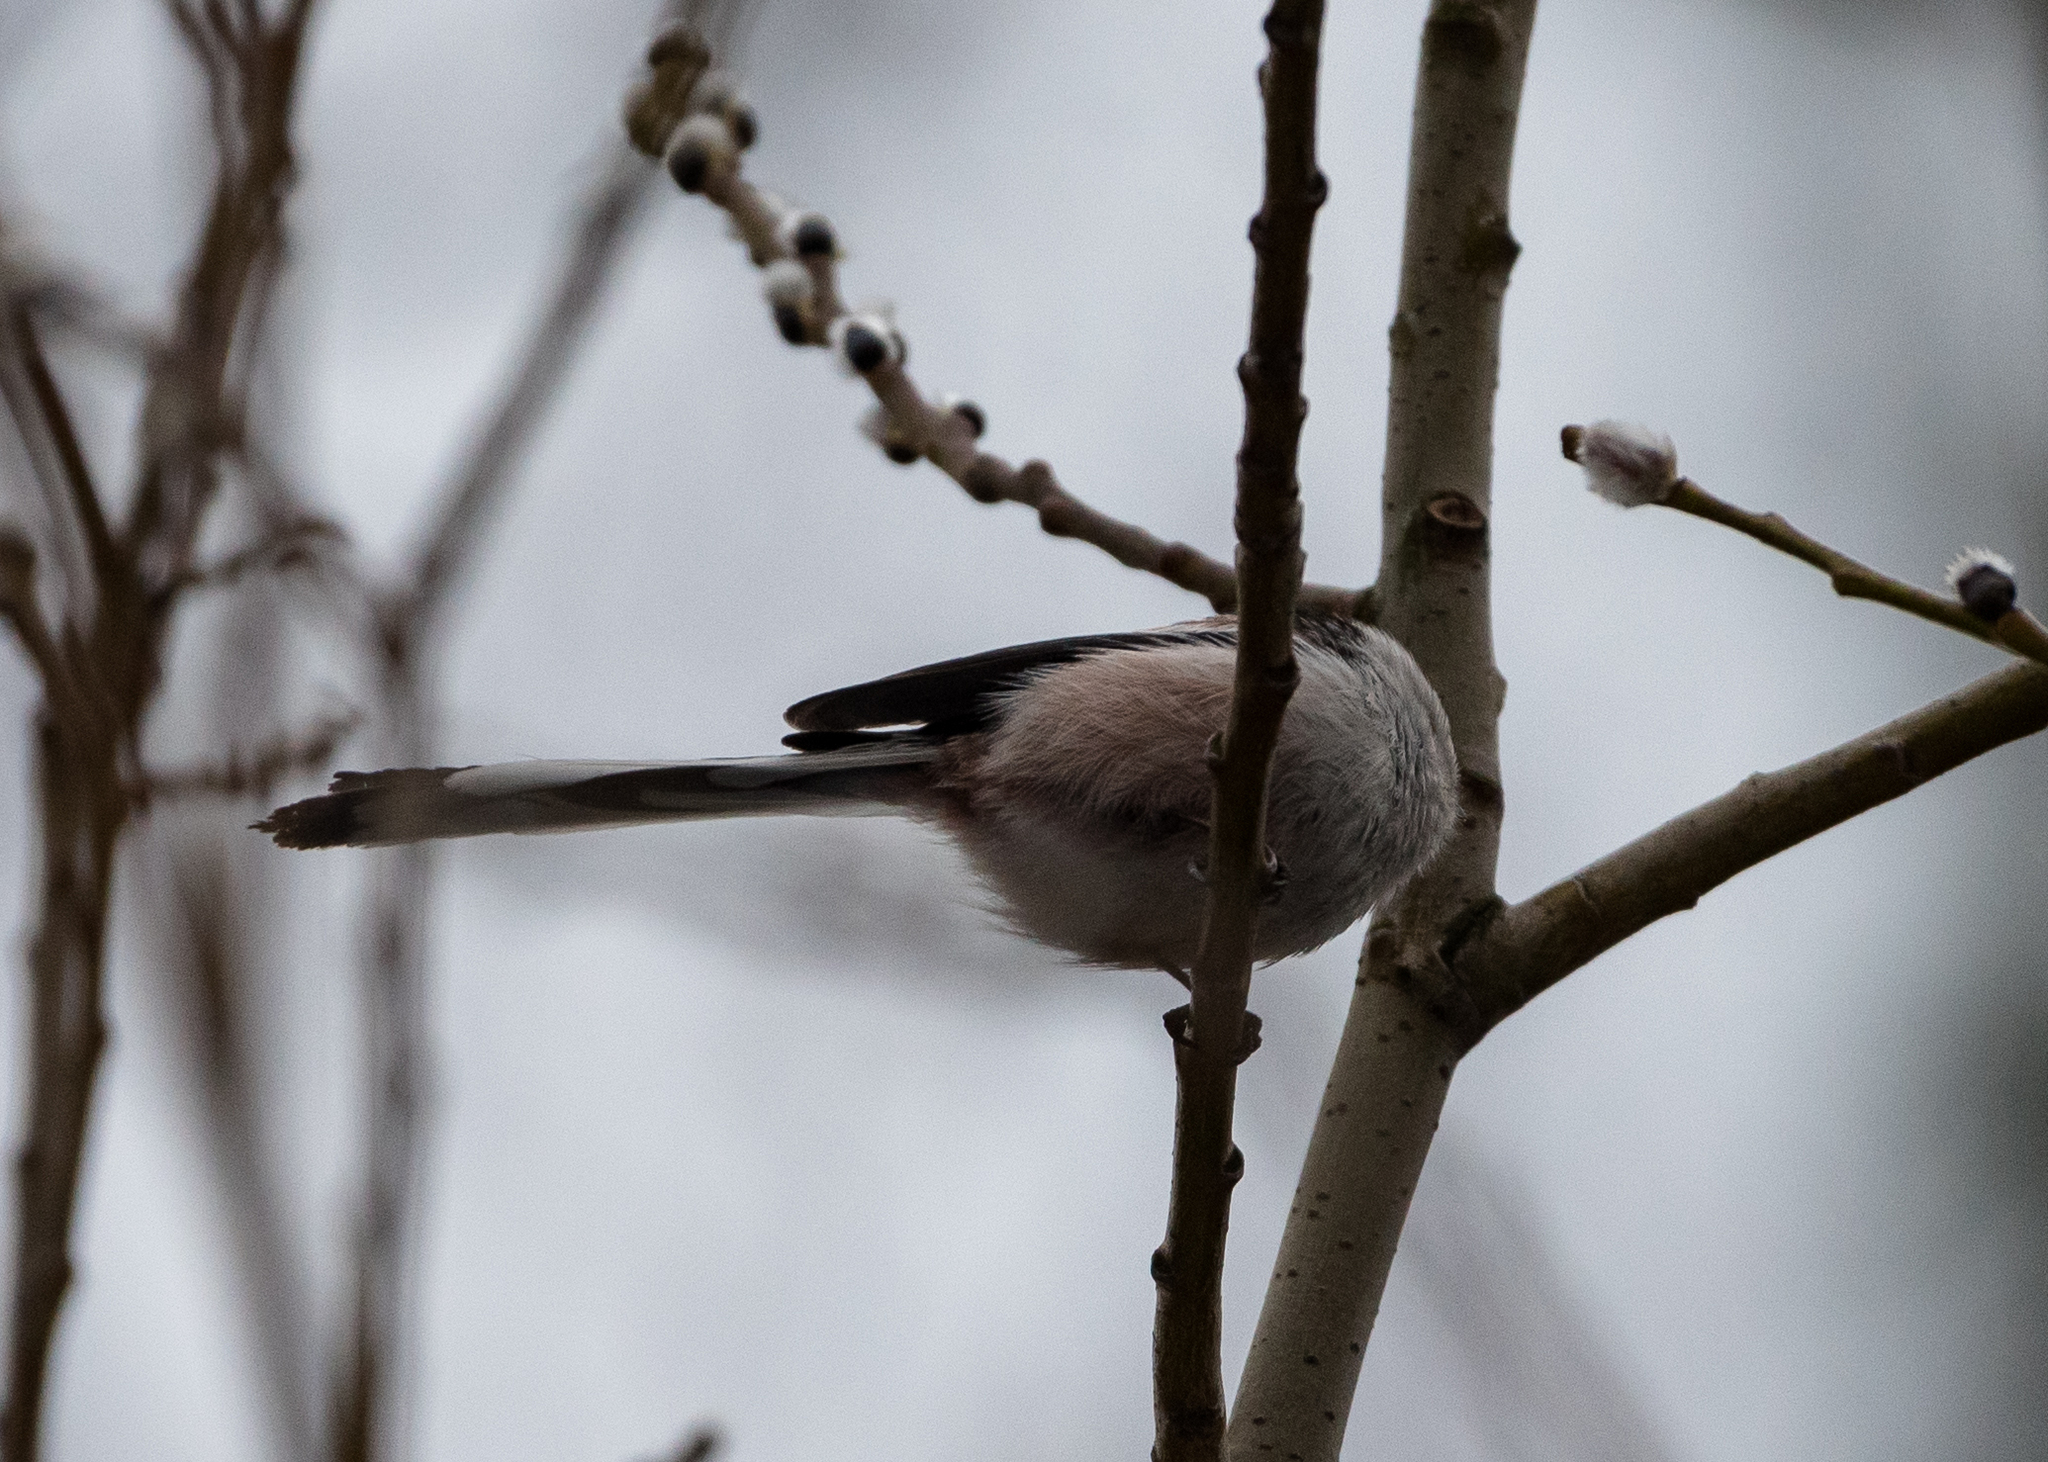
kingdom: Animalia
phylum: Chordata
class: Aves
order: Passeriformes
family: Aegithalidae
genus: Aegithalos
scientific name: Aegithalos caudatus
